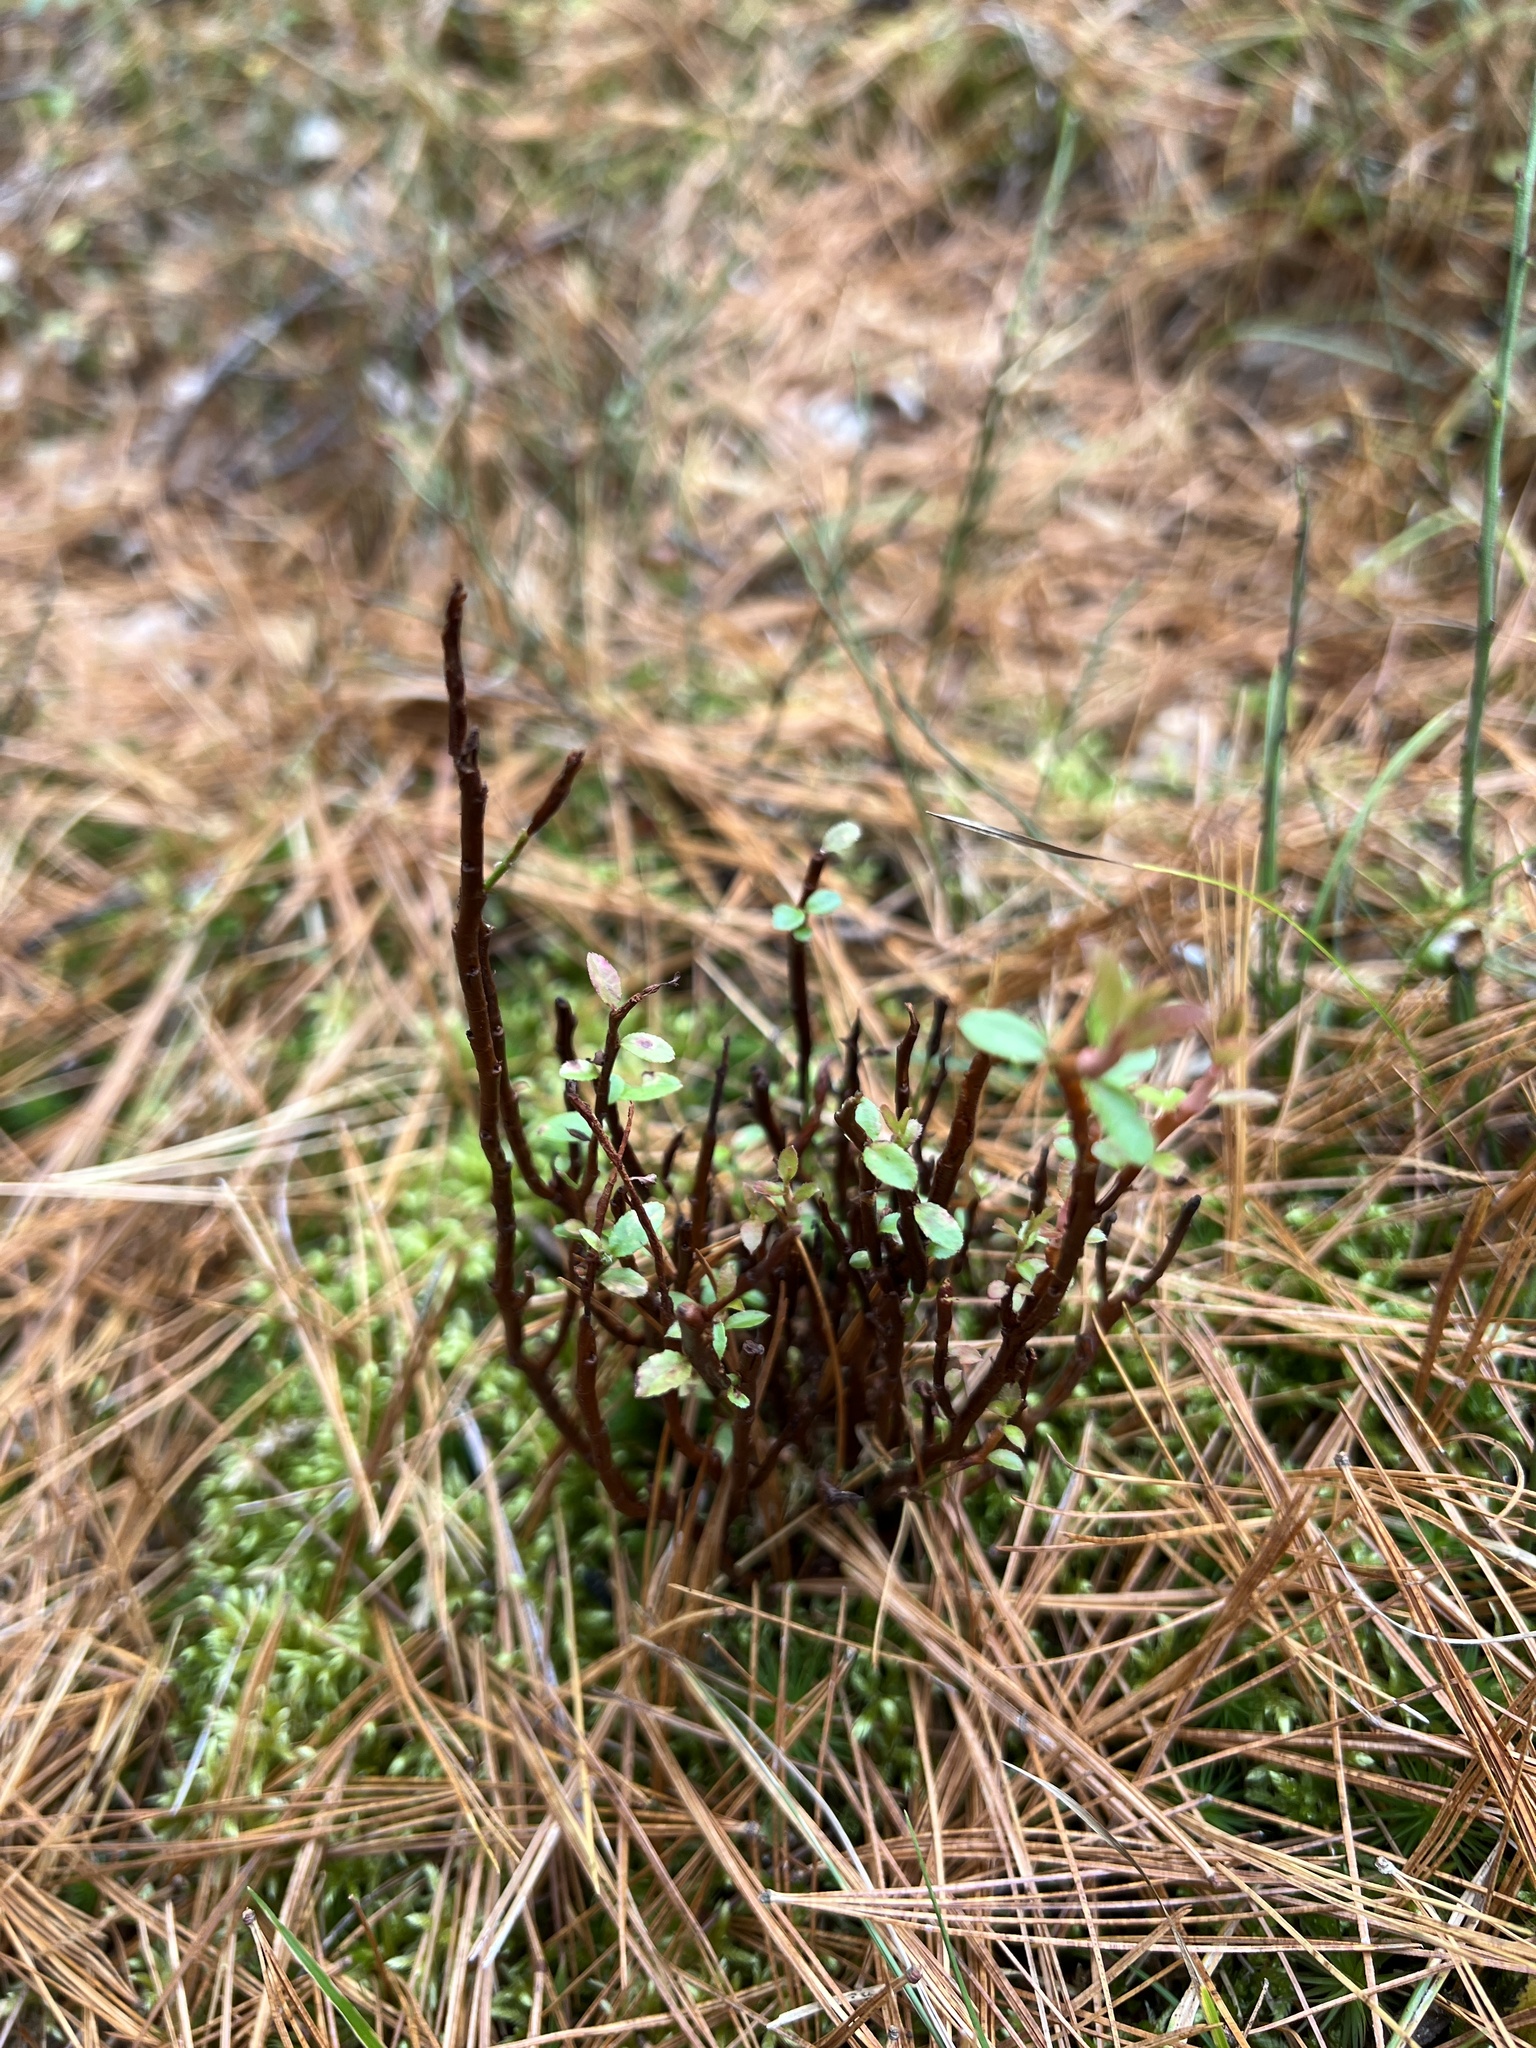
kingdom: Fungi
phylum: Basidiomycota
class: Pucciniomycetes
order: Pucciniales
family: Pucciniastraceae
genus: Calyptospora
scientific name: Calyptospora columnaris
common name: Huckleberry broom rust fungus
